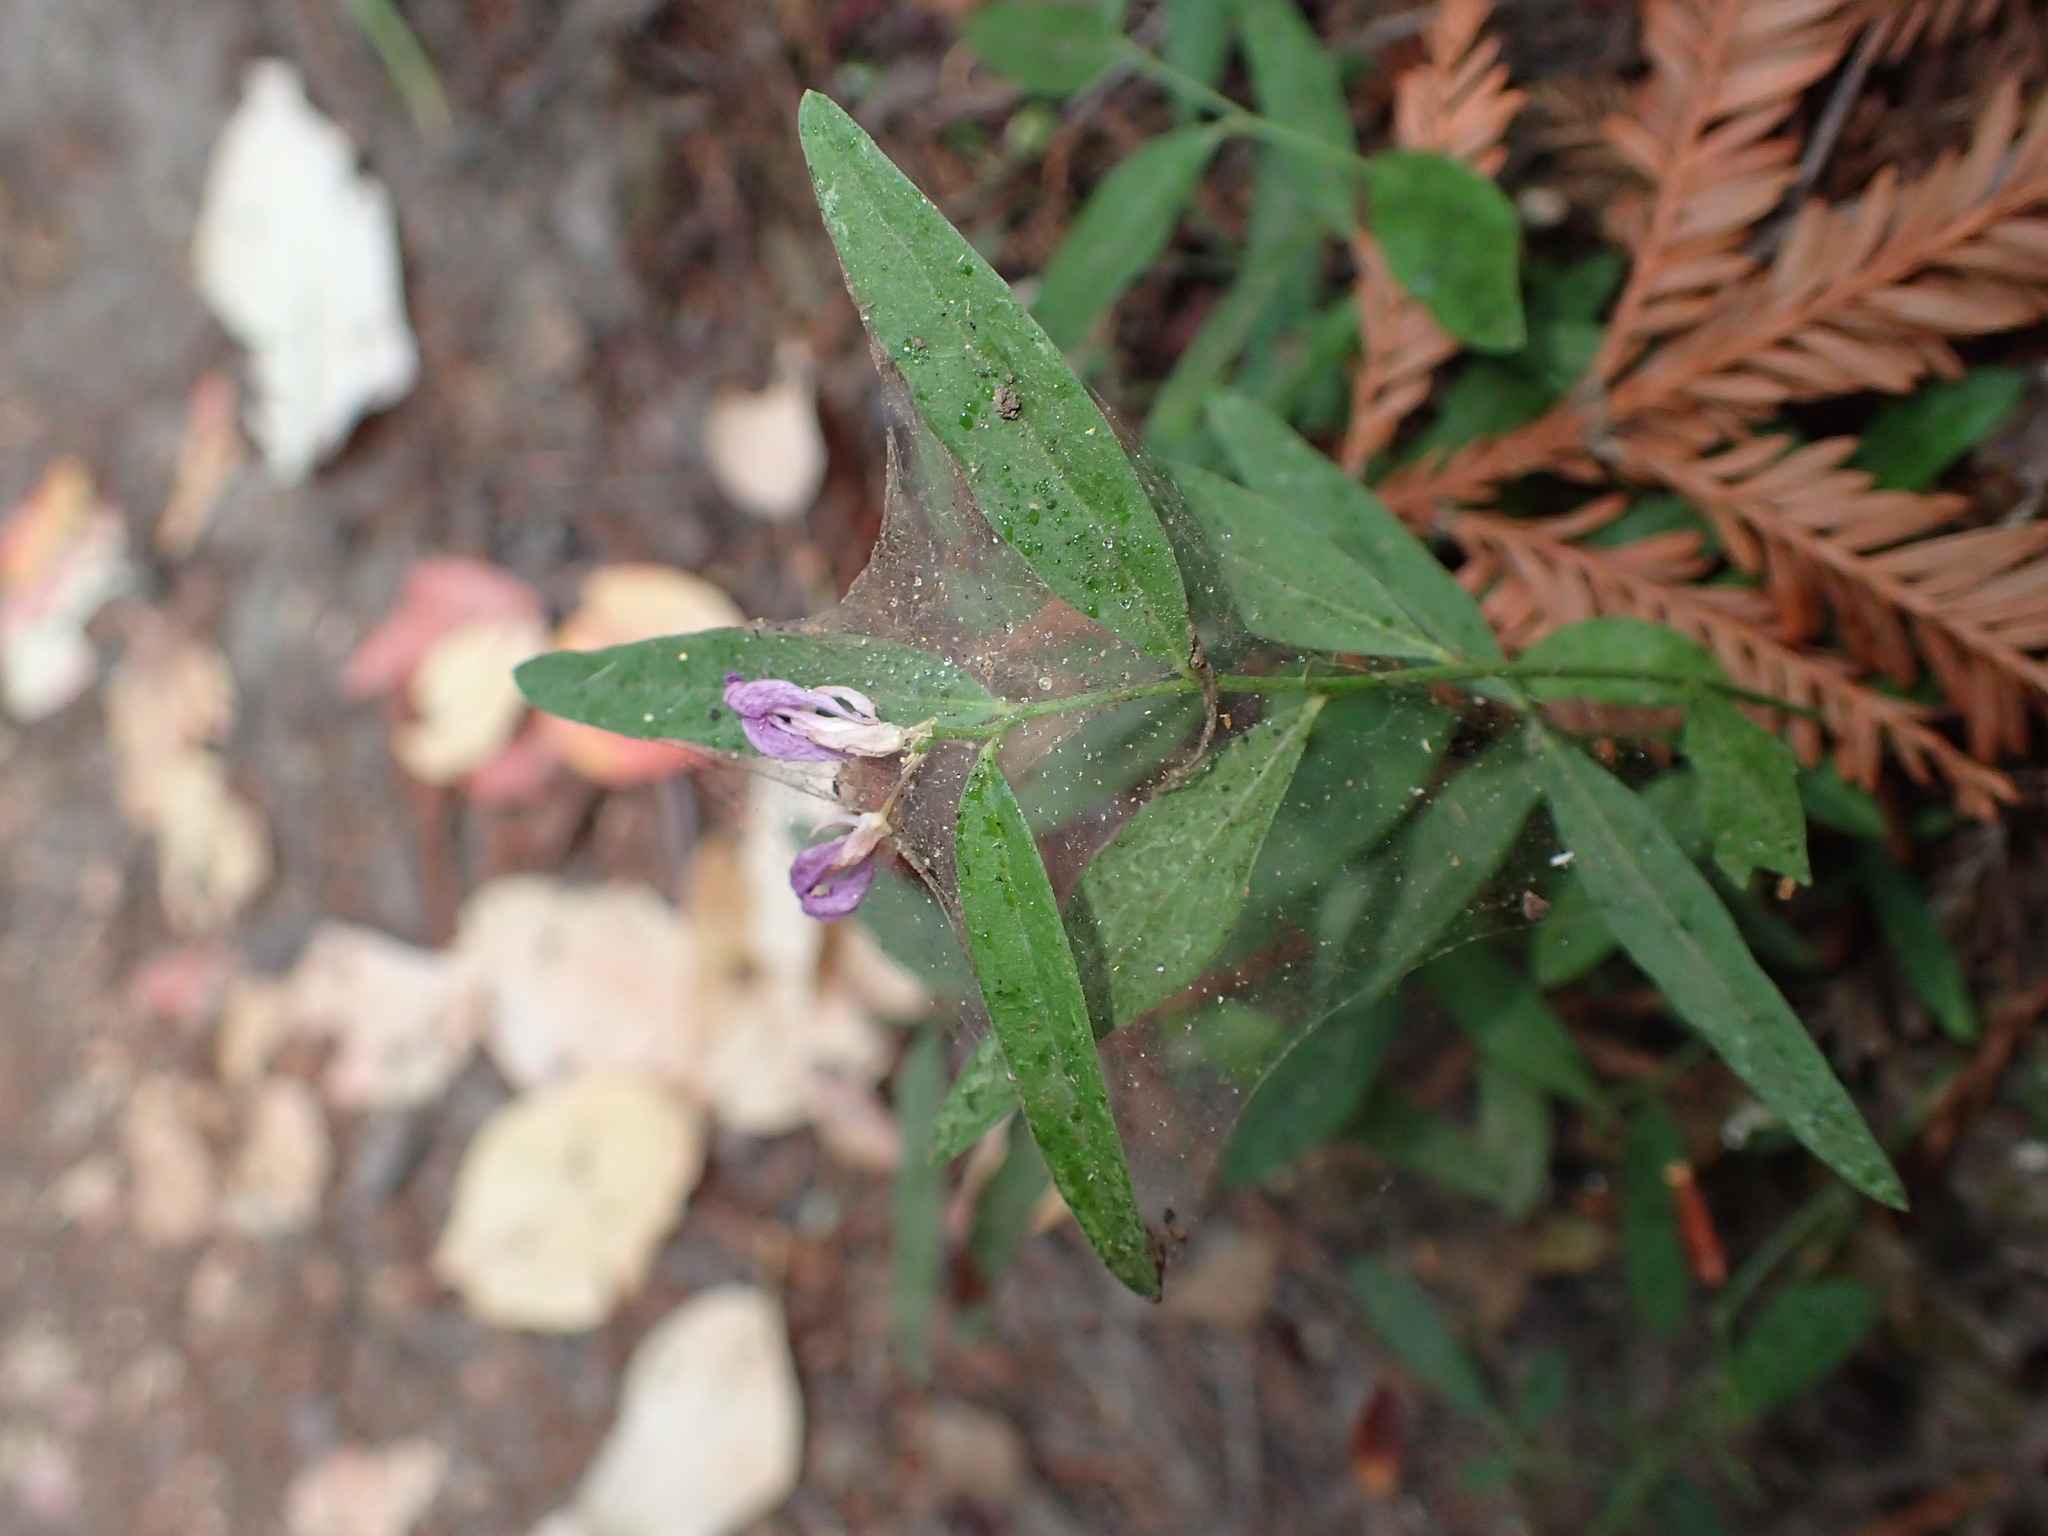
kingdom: Plantae
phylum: Tracheophyta
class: Magnoliopsida
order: Fabales
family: Polygalaceae
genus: Rhinotropis
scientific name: Rhinotropis californica
